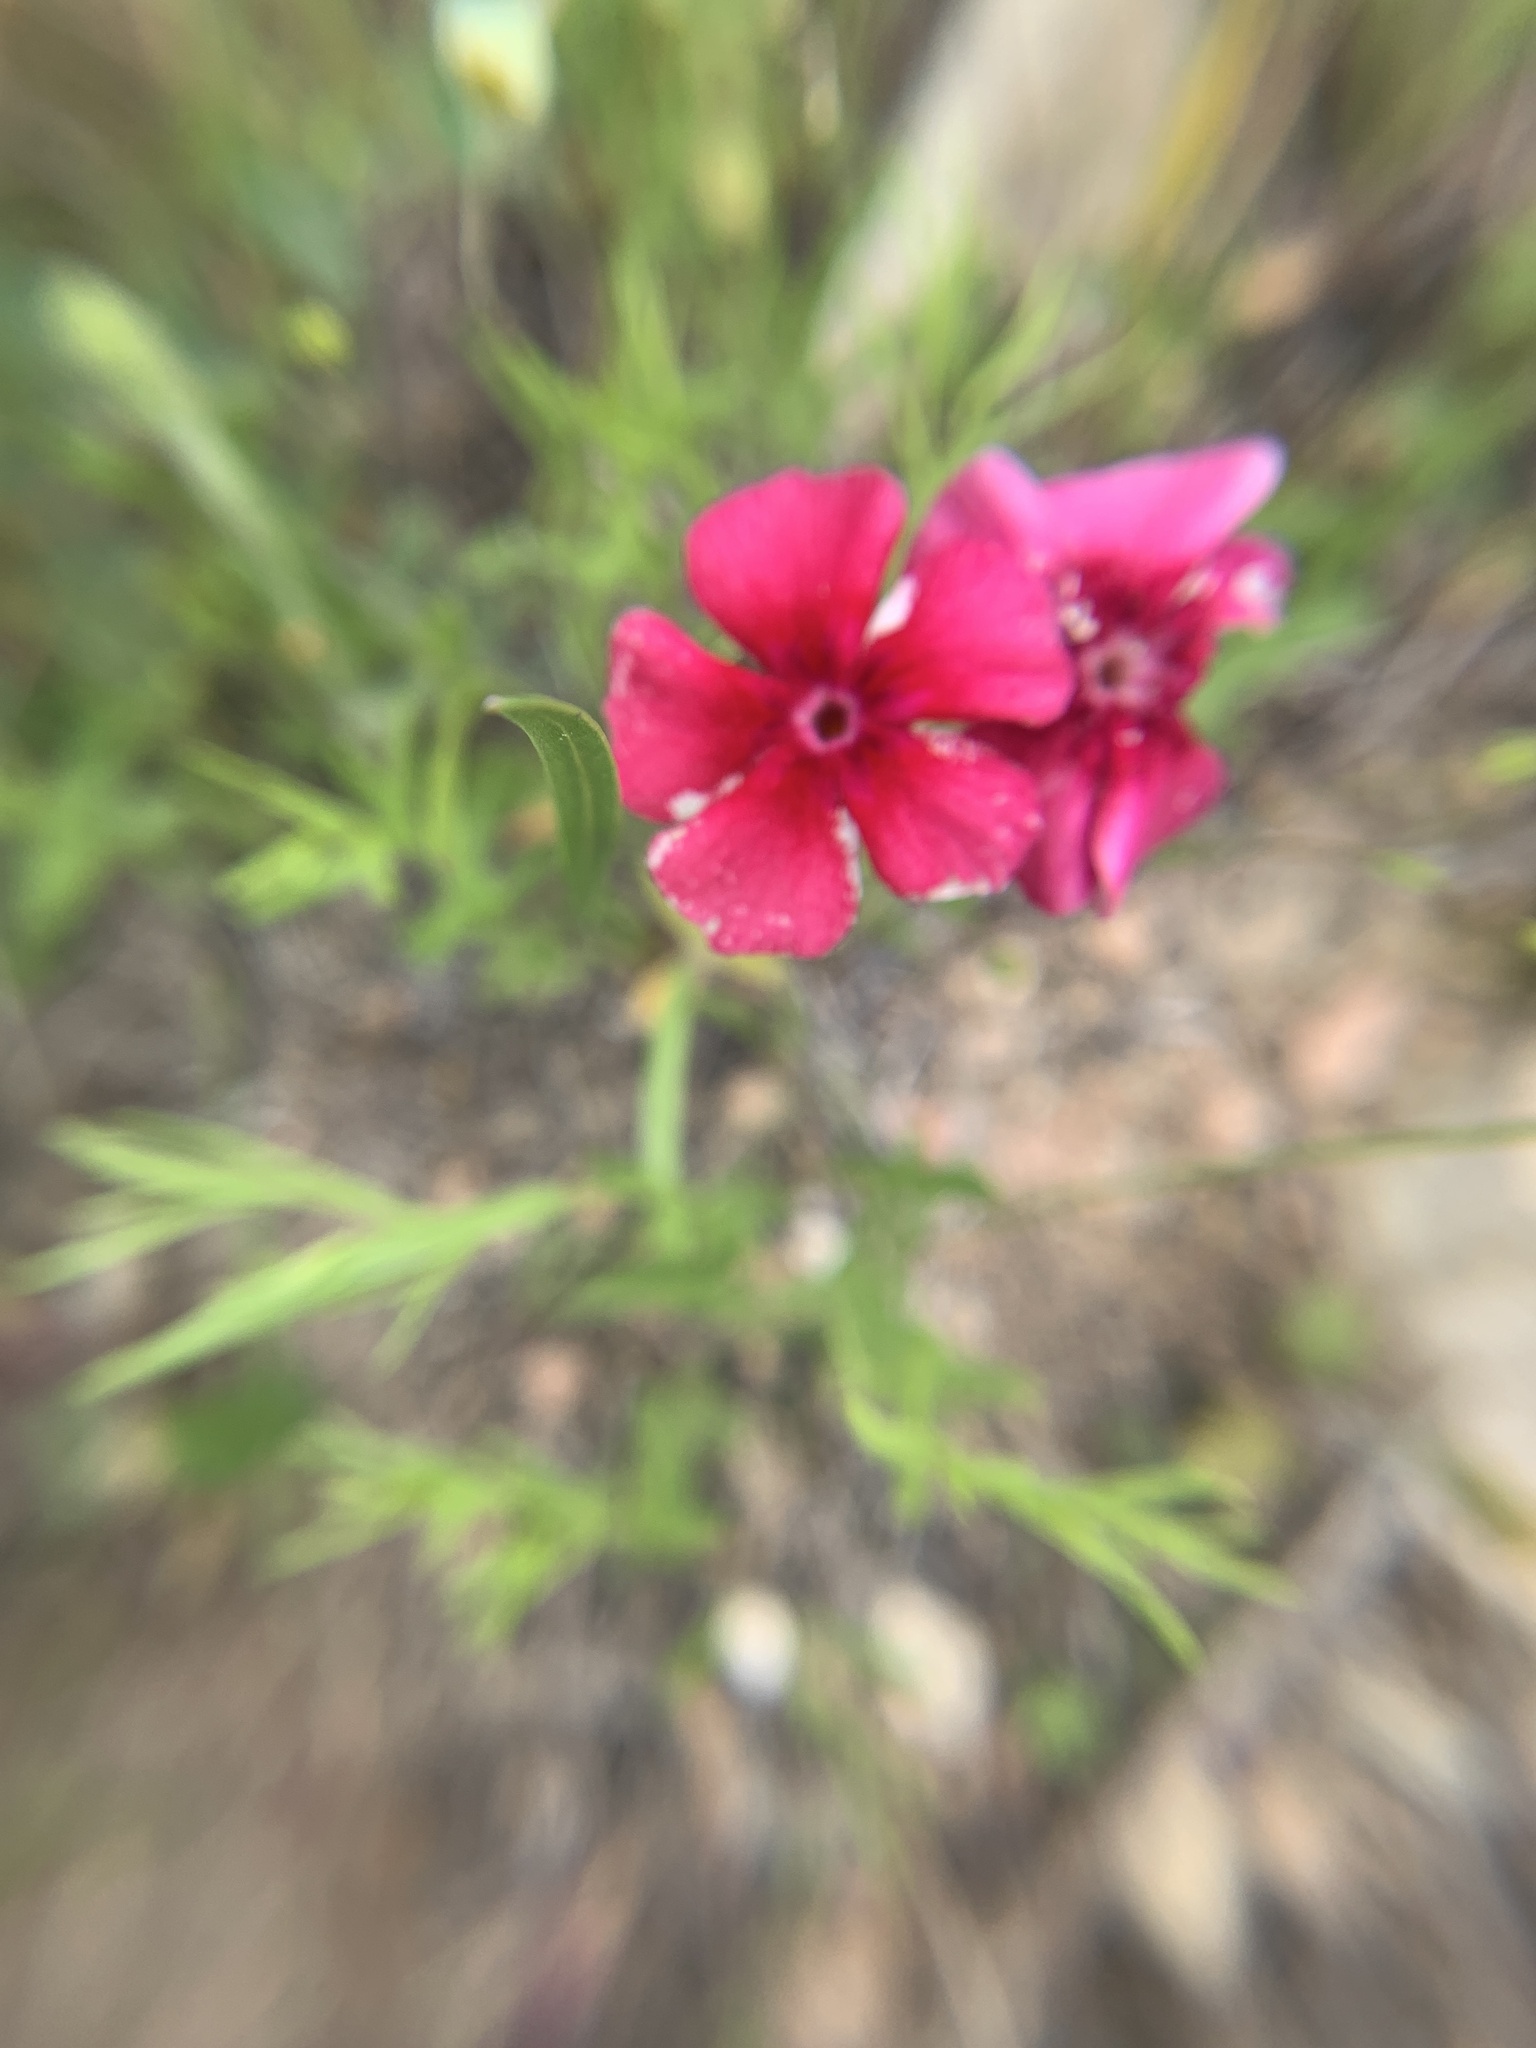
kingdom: Plantae
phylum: Tracheophyta
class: Magnoliopsida
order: Ericales
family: Polemoniaceae
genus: Phlox
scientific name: Phlox drummondii
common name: Drummond's phlox
